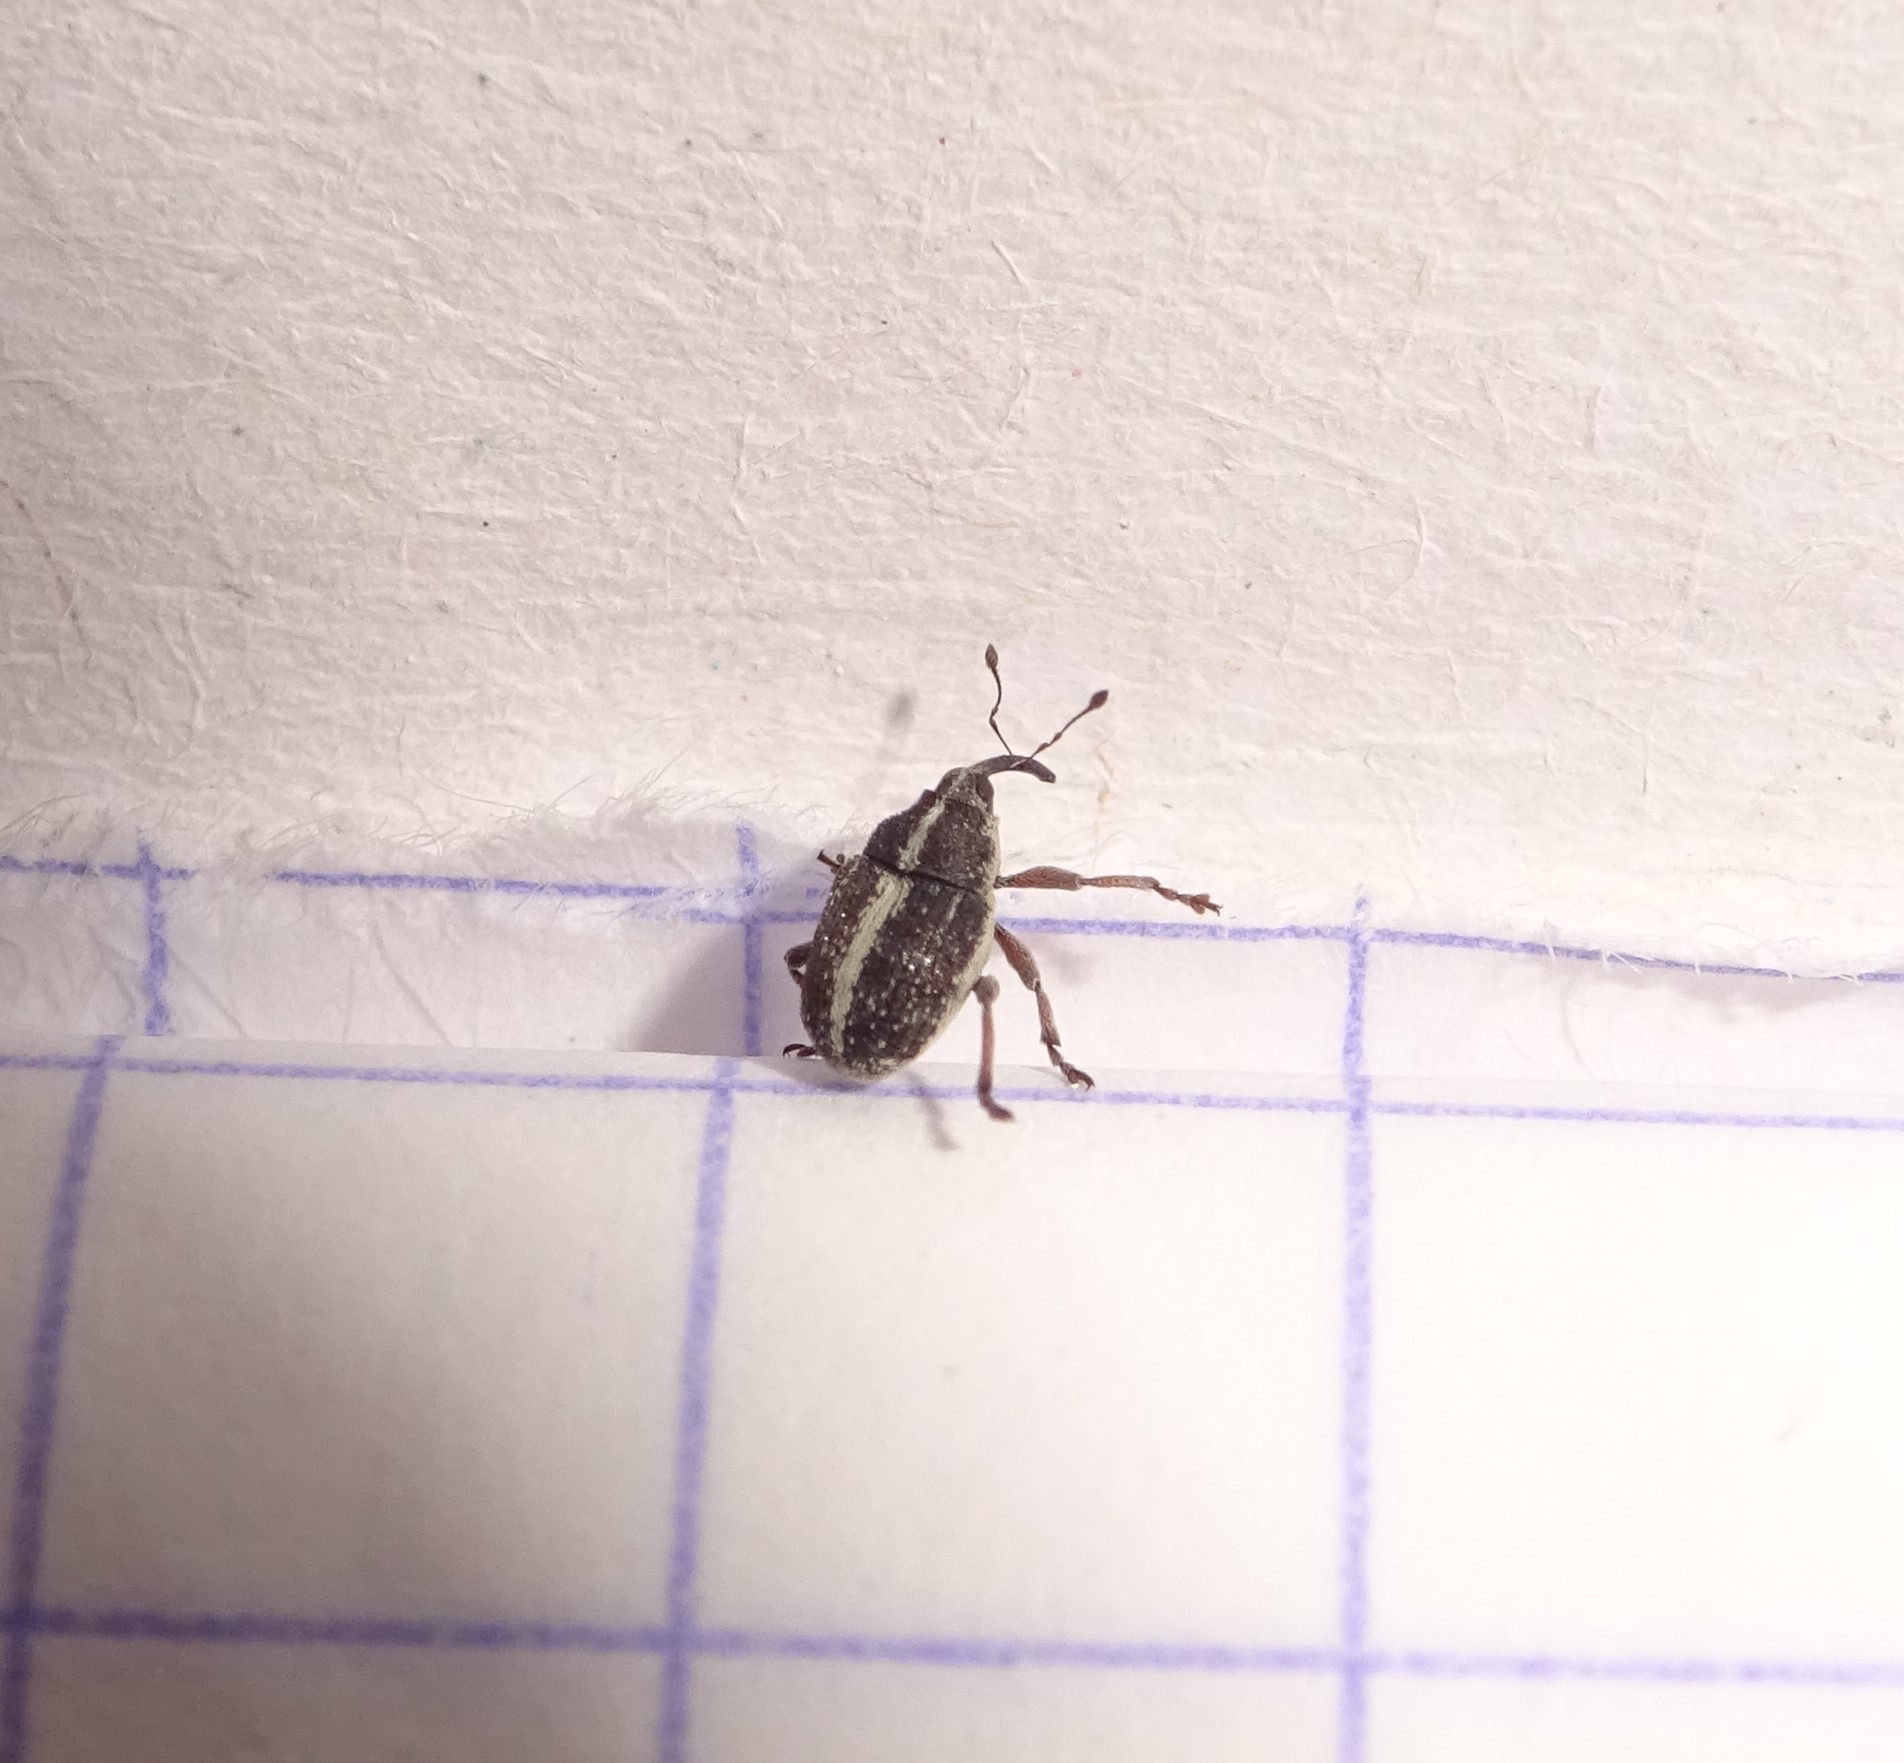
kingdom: Animalia
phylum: Arthropoda
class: Insecta
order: Coleoptera
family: Curculionidae
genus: Oprohinus
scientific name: Oprohinus suturalis
